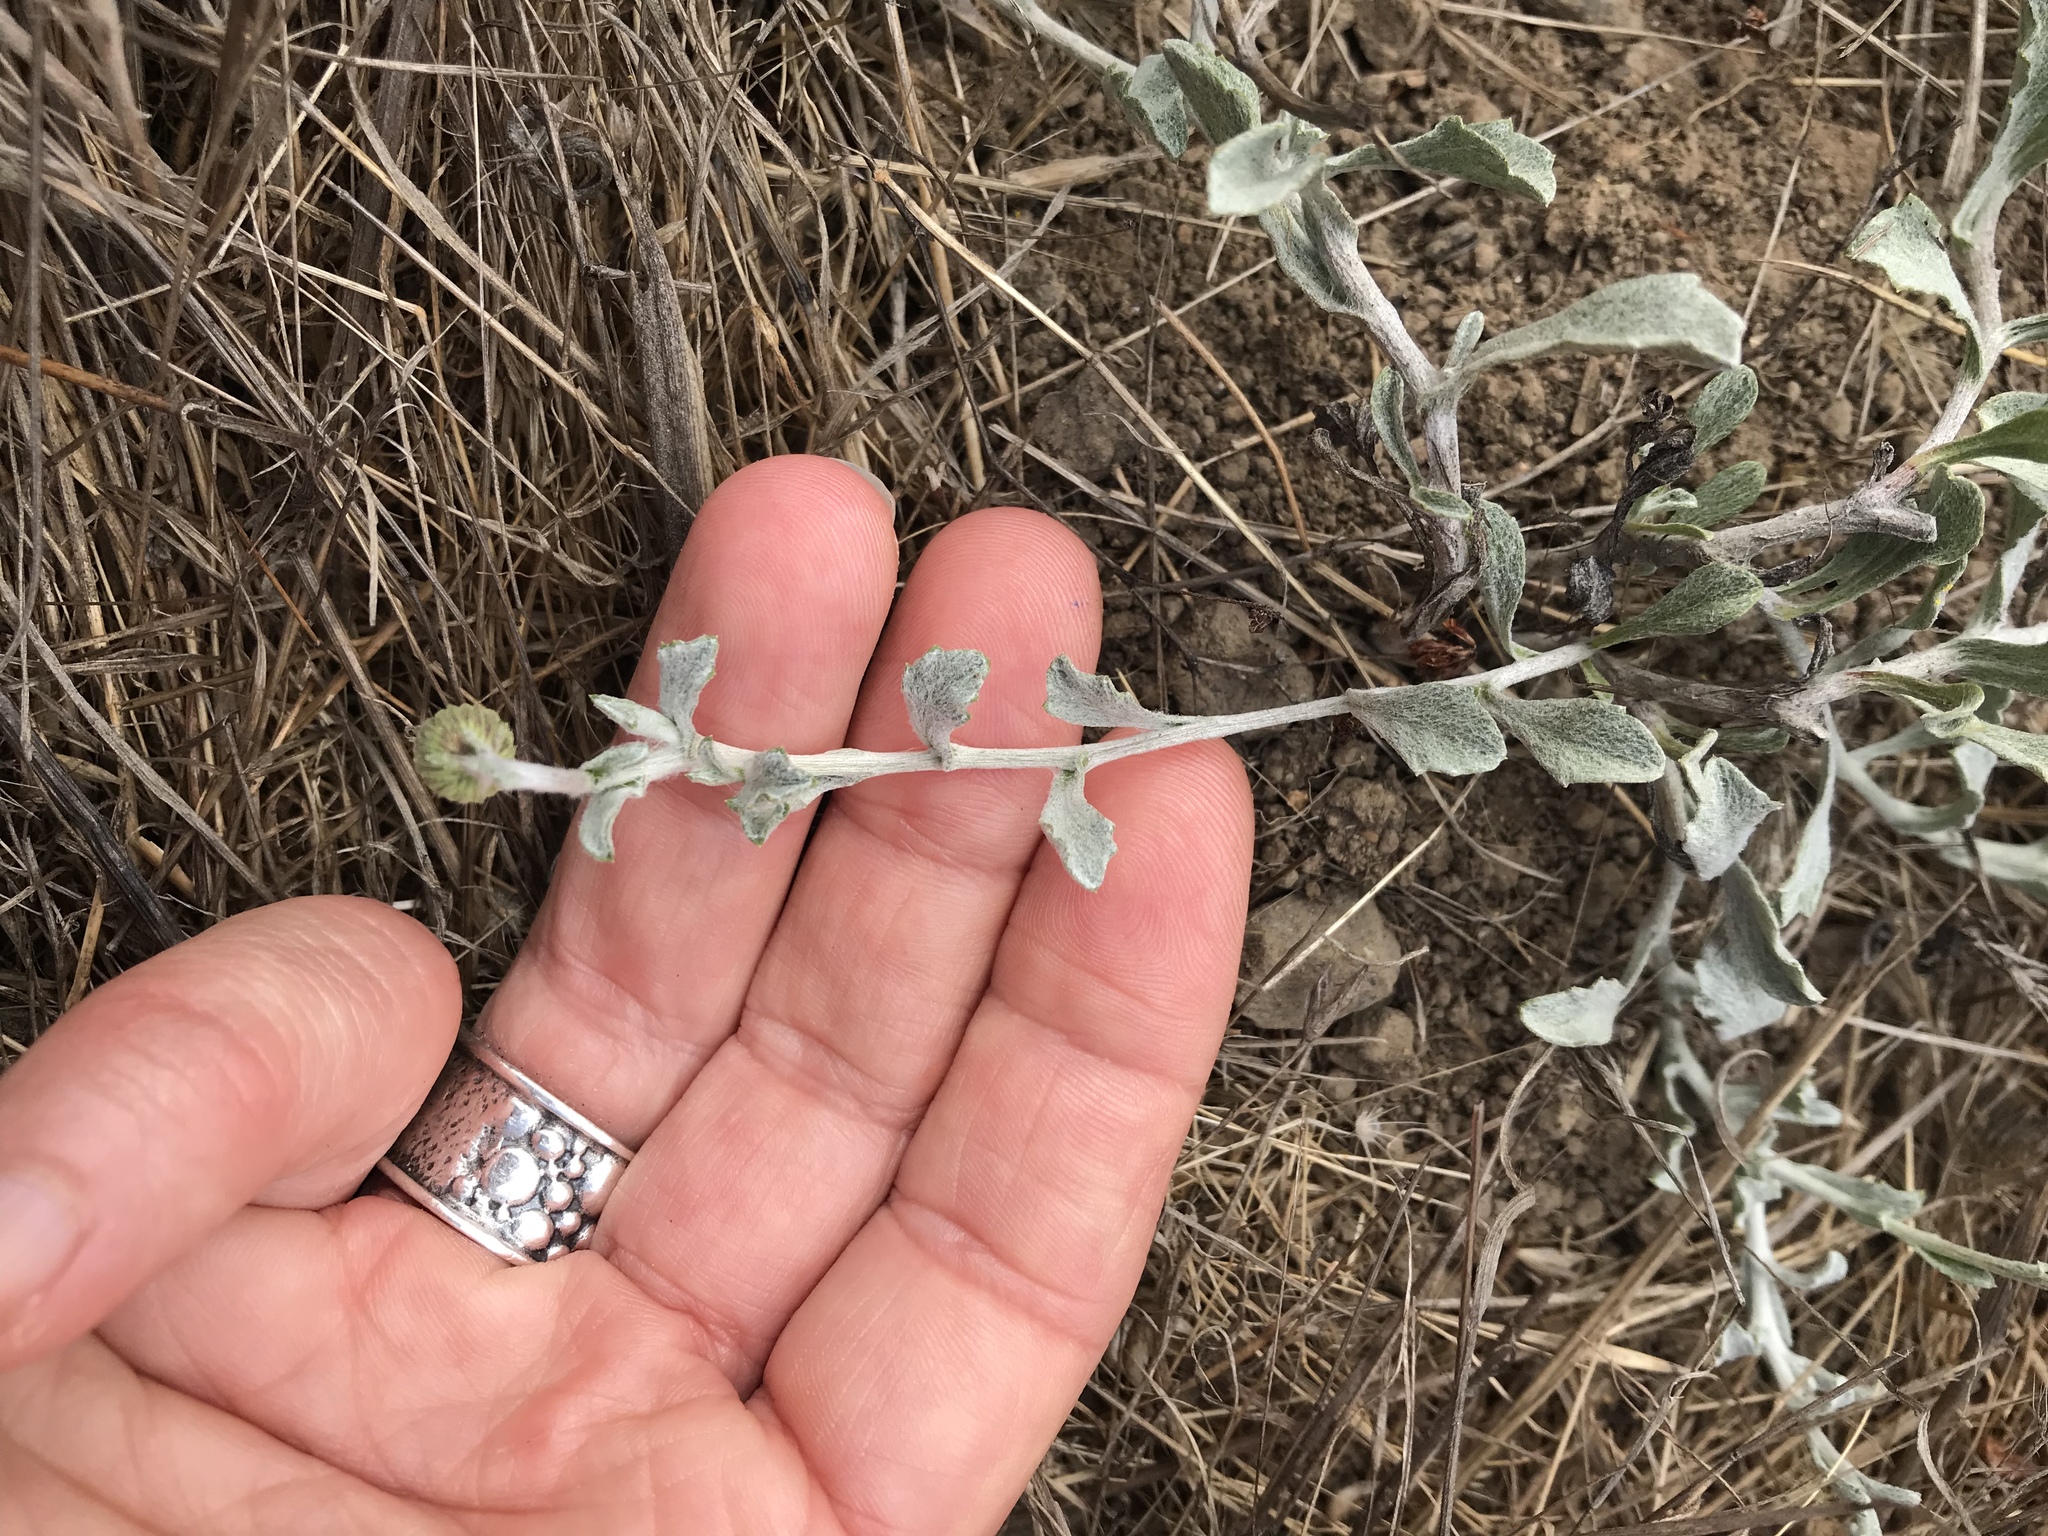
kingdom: Plantae
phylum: Tracheophyta
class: Magnoliopsida
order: Asterales
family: Asteraceae
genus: Corethrogyne
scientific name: Corethrogyne filaginifolia
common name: Sand-aster
